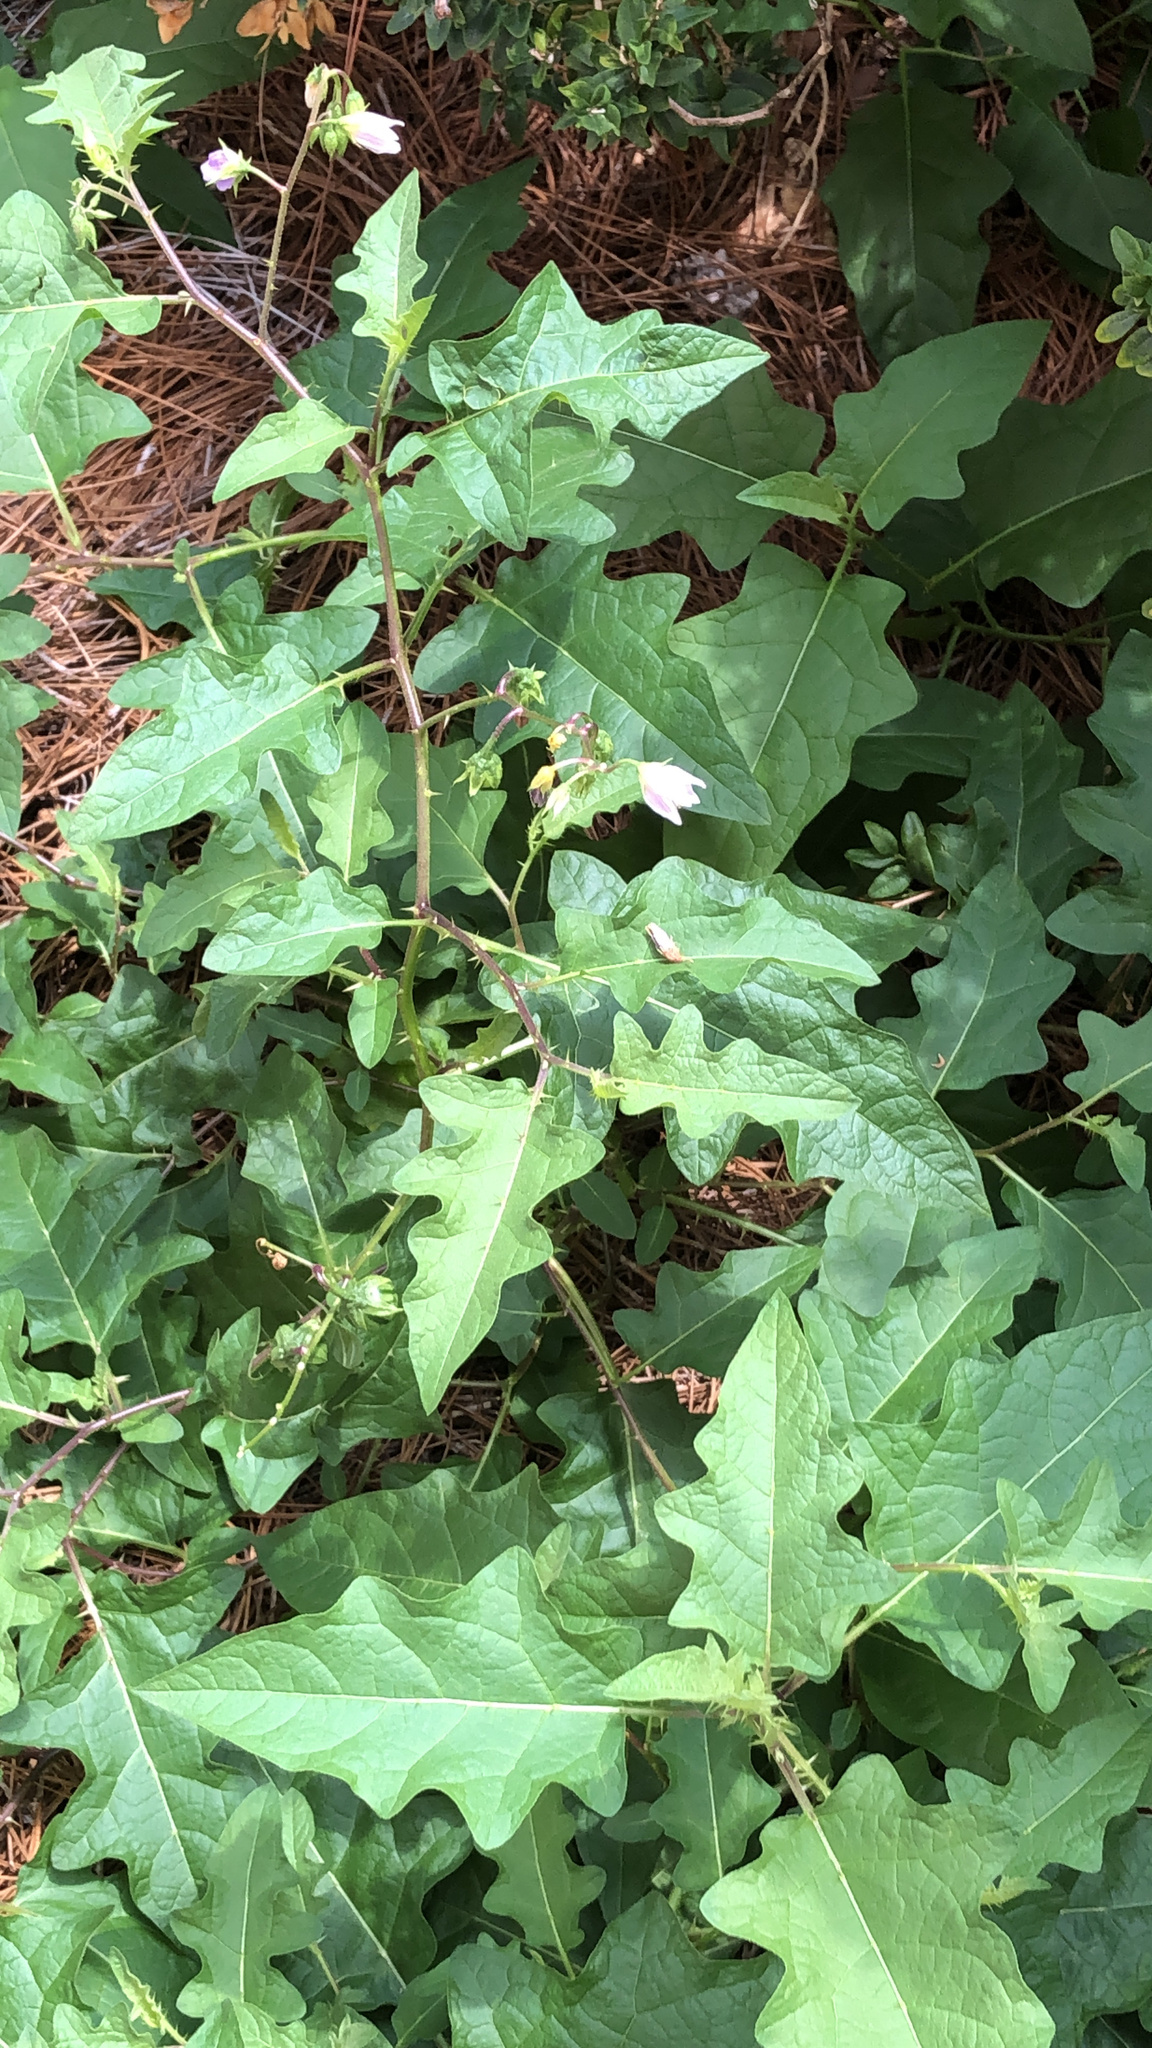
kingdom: Plantae
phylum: Tracheophyta
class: Magnoliopsida
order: Solanales
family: Solanaceae
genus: Solanum
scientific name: Solanum carolinense
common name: Horse-nettle
